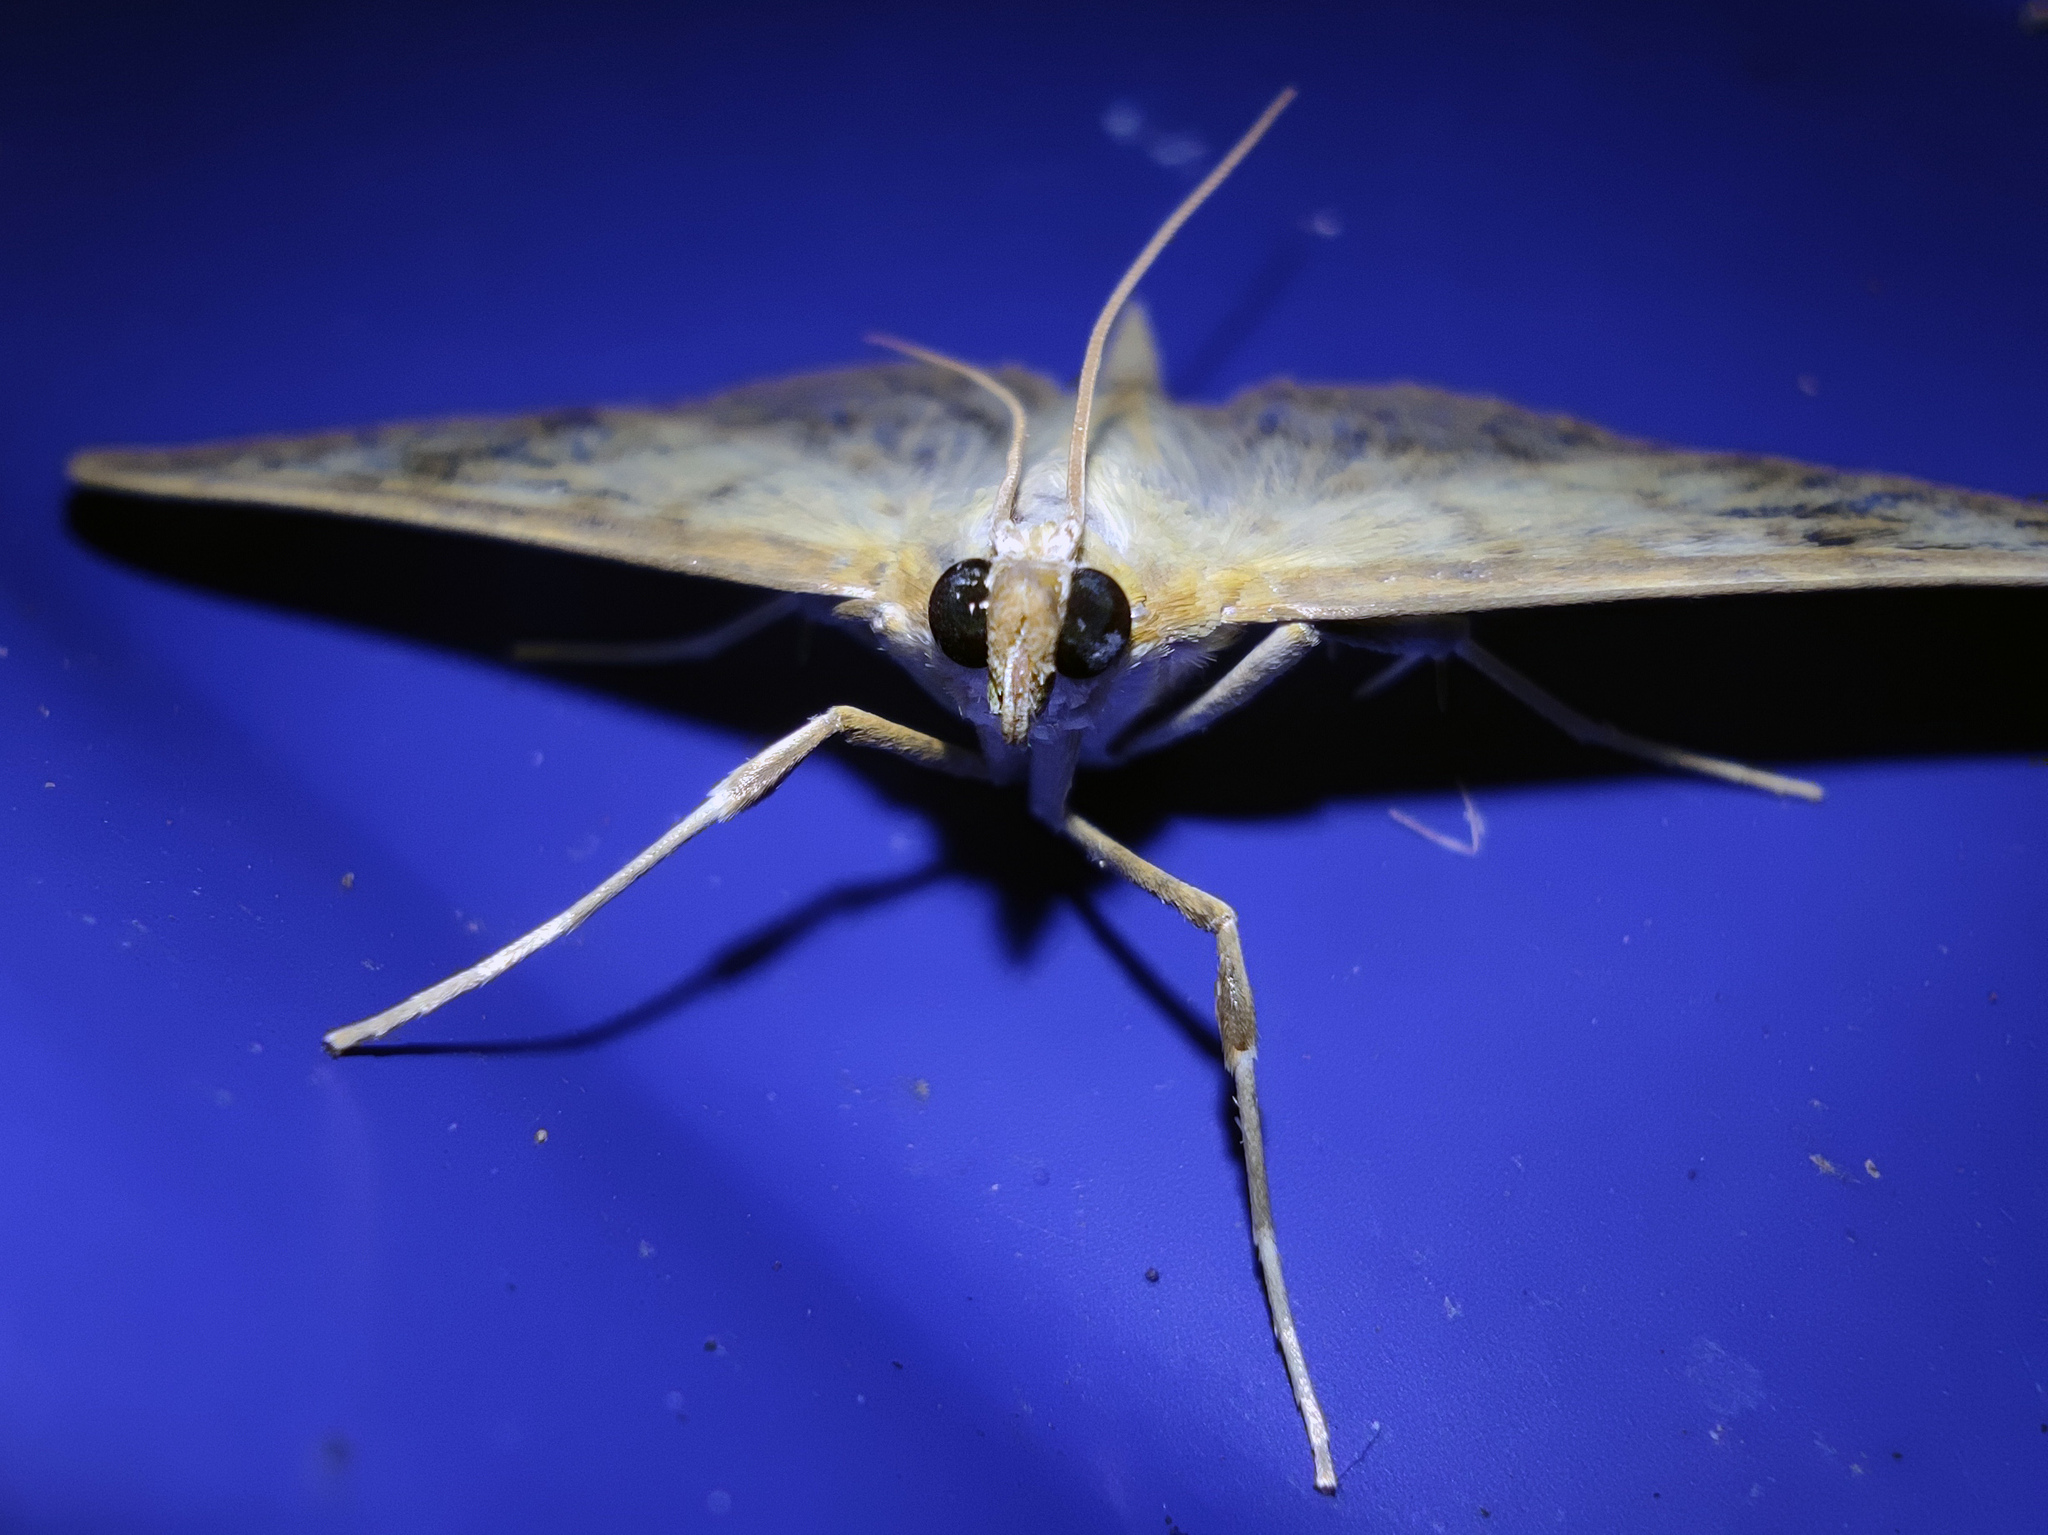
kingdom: Animalia
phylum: Arthropoda
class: Insecta
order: Lepidoptera
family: Crambidae
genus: Patania
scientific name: Patania ruralis
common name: Mother of pearl
